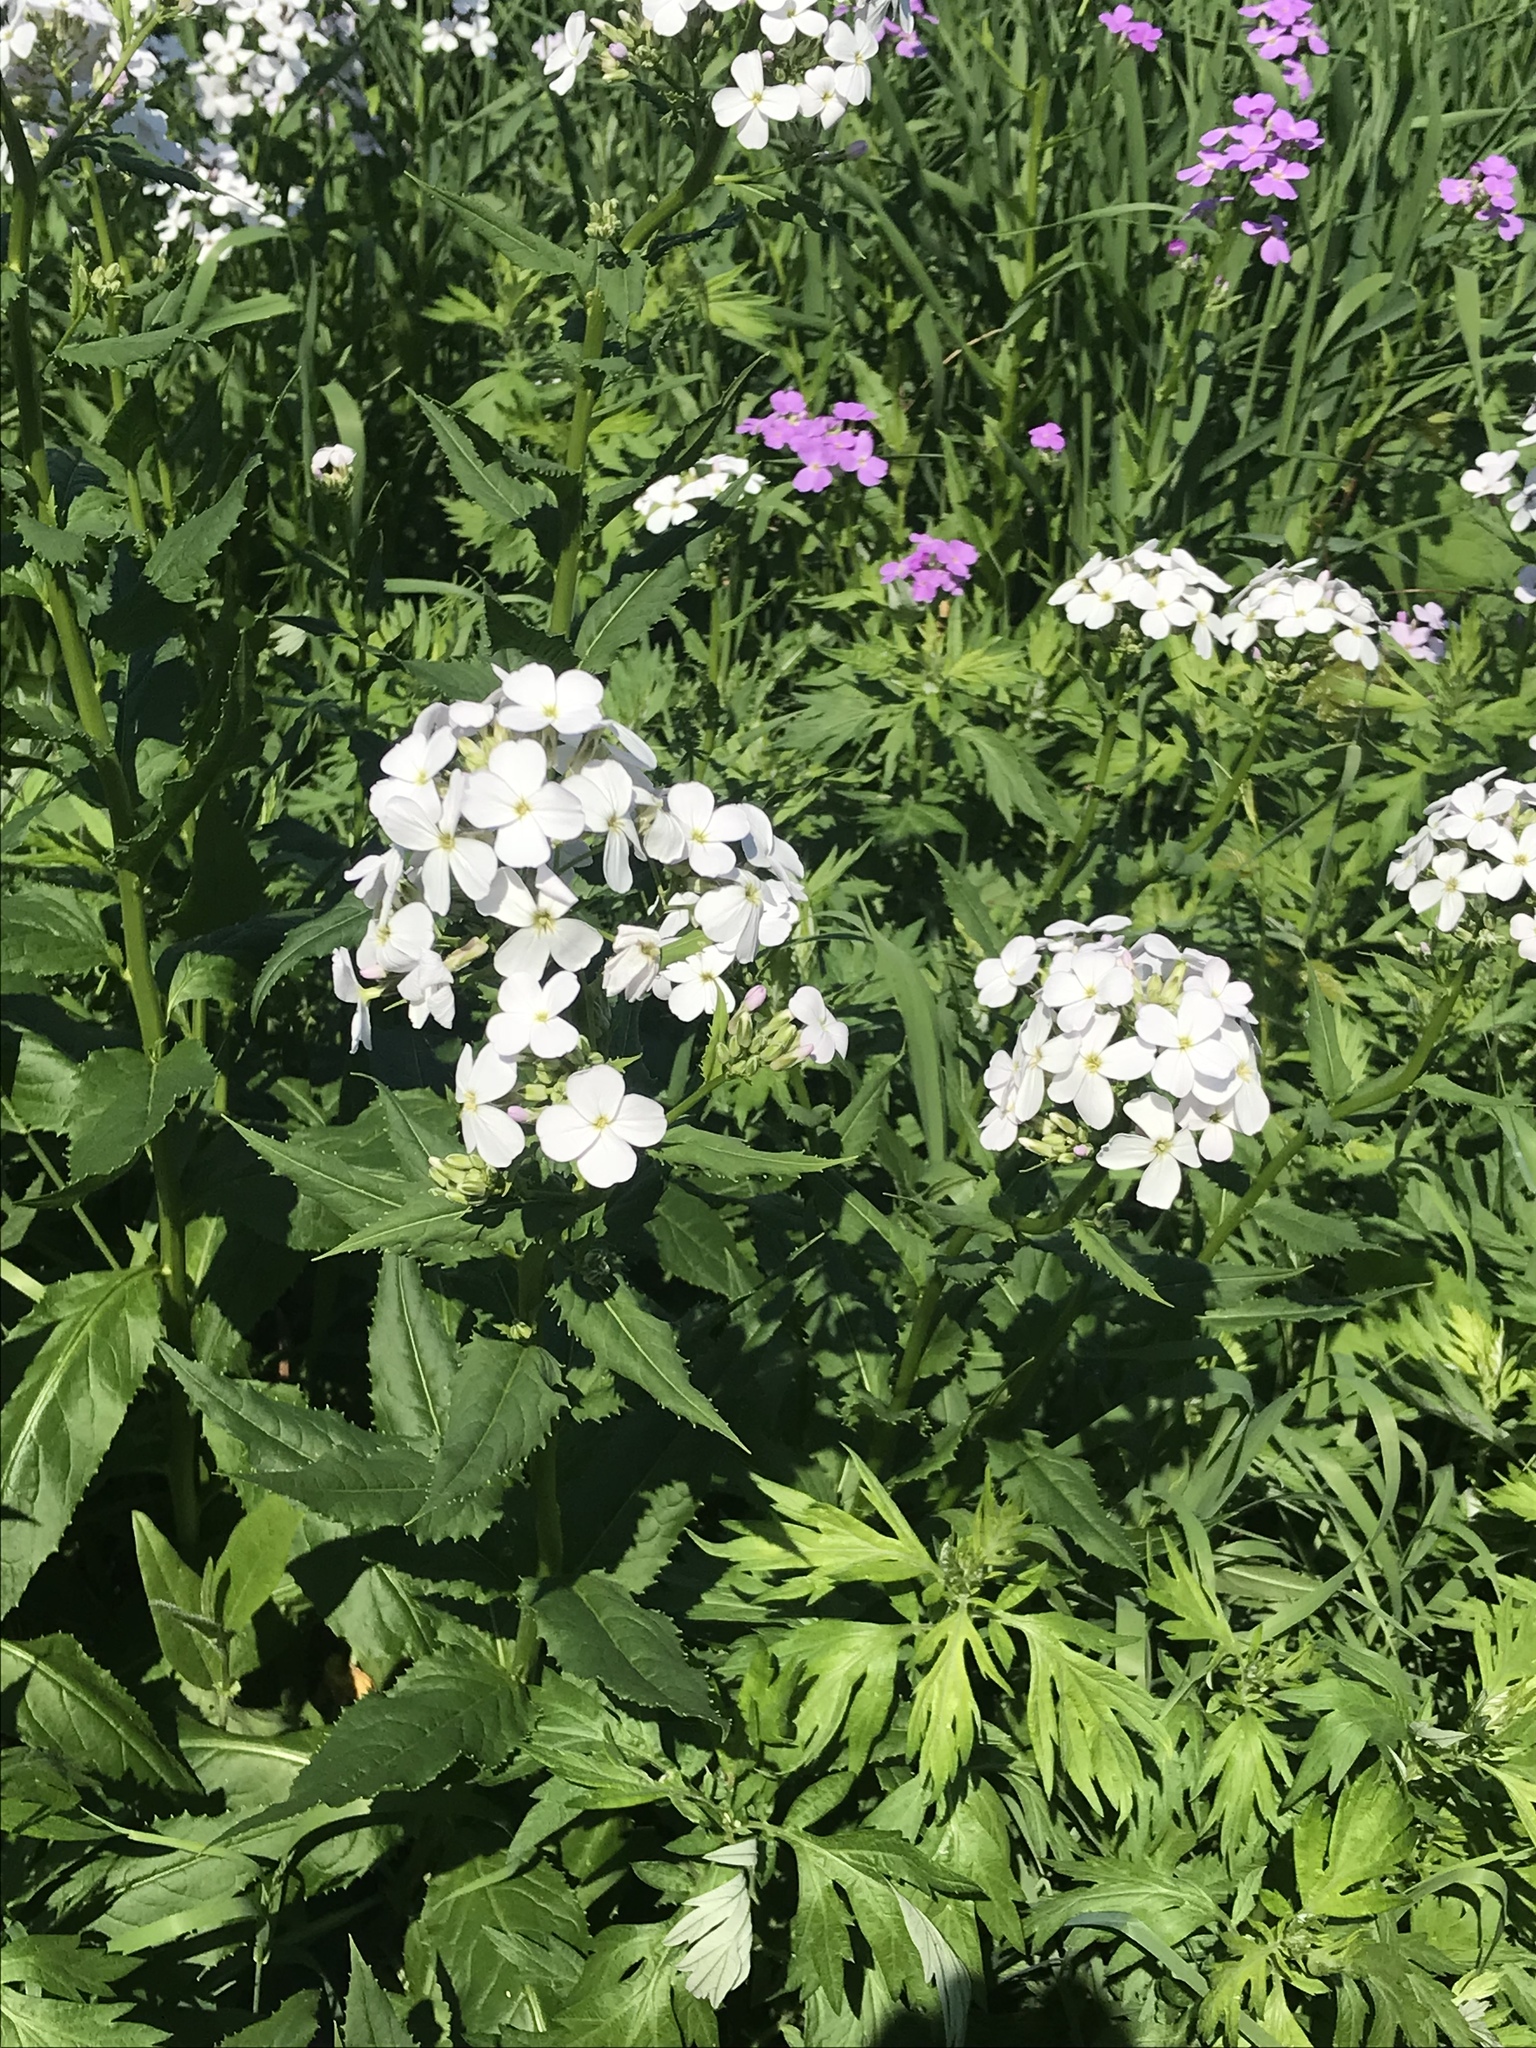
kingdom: Plantae
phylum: Tracheophyta
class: Magnoliopsida
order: Brassicales
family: Brassicaceae
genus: Hesperis
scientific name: Hesperis matronalis
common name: Dame's-violet
